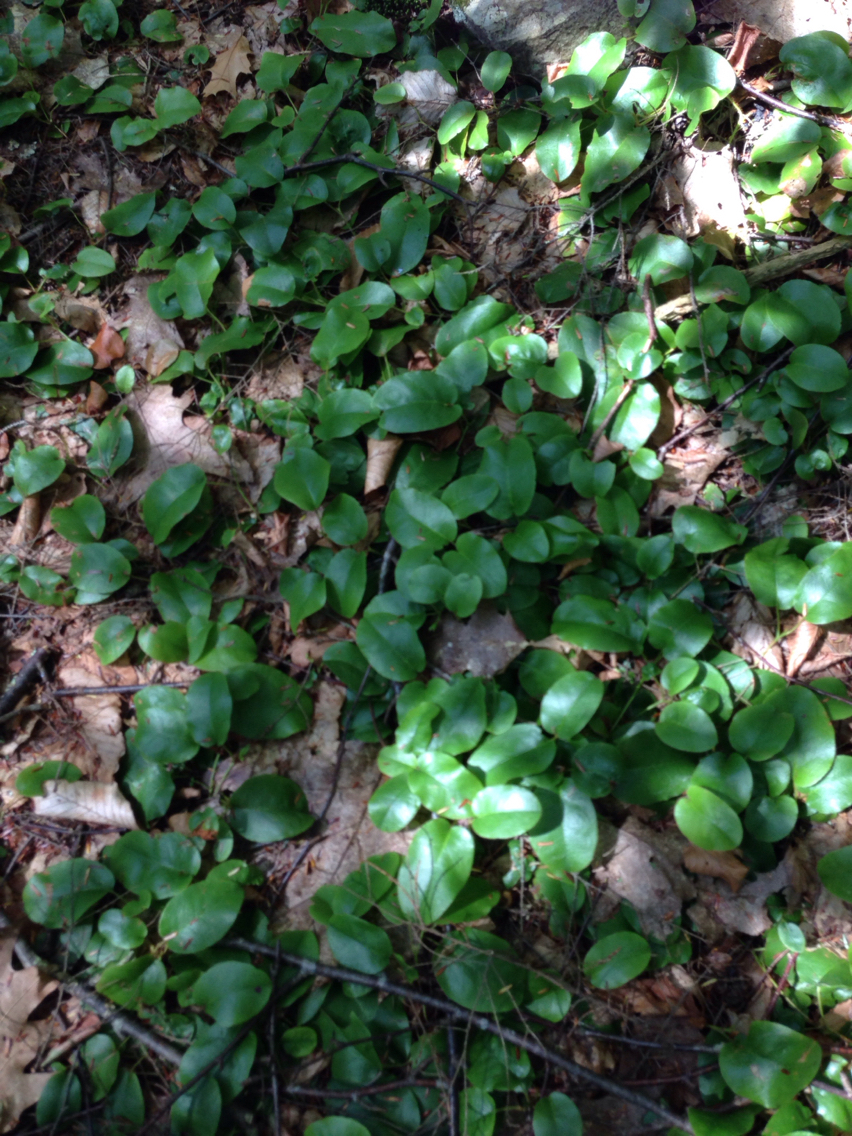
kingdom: Plantae
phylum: Tracheophyta
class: Magnoliopsida
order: Ericales
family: Ericaceae
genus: Epigaea
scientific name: Epigaea repens
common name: Gravelroot
